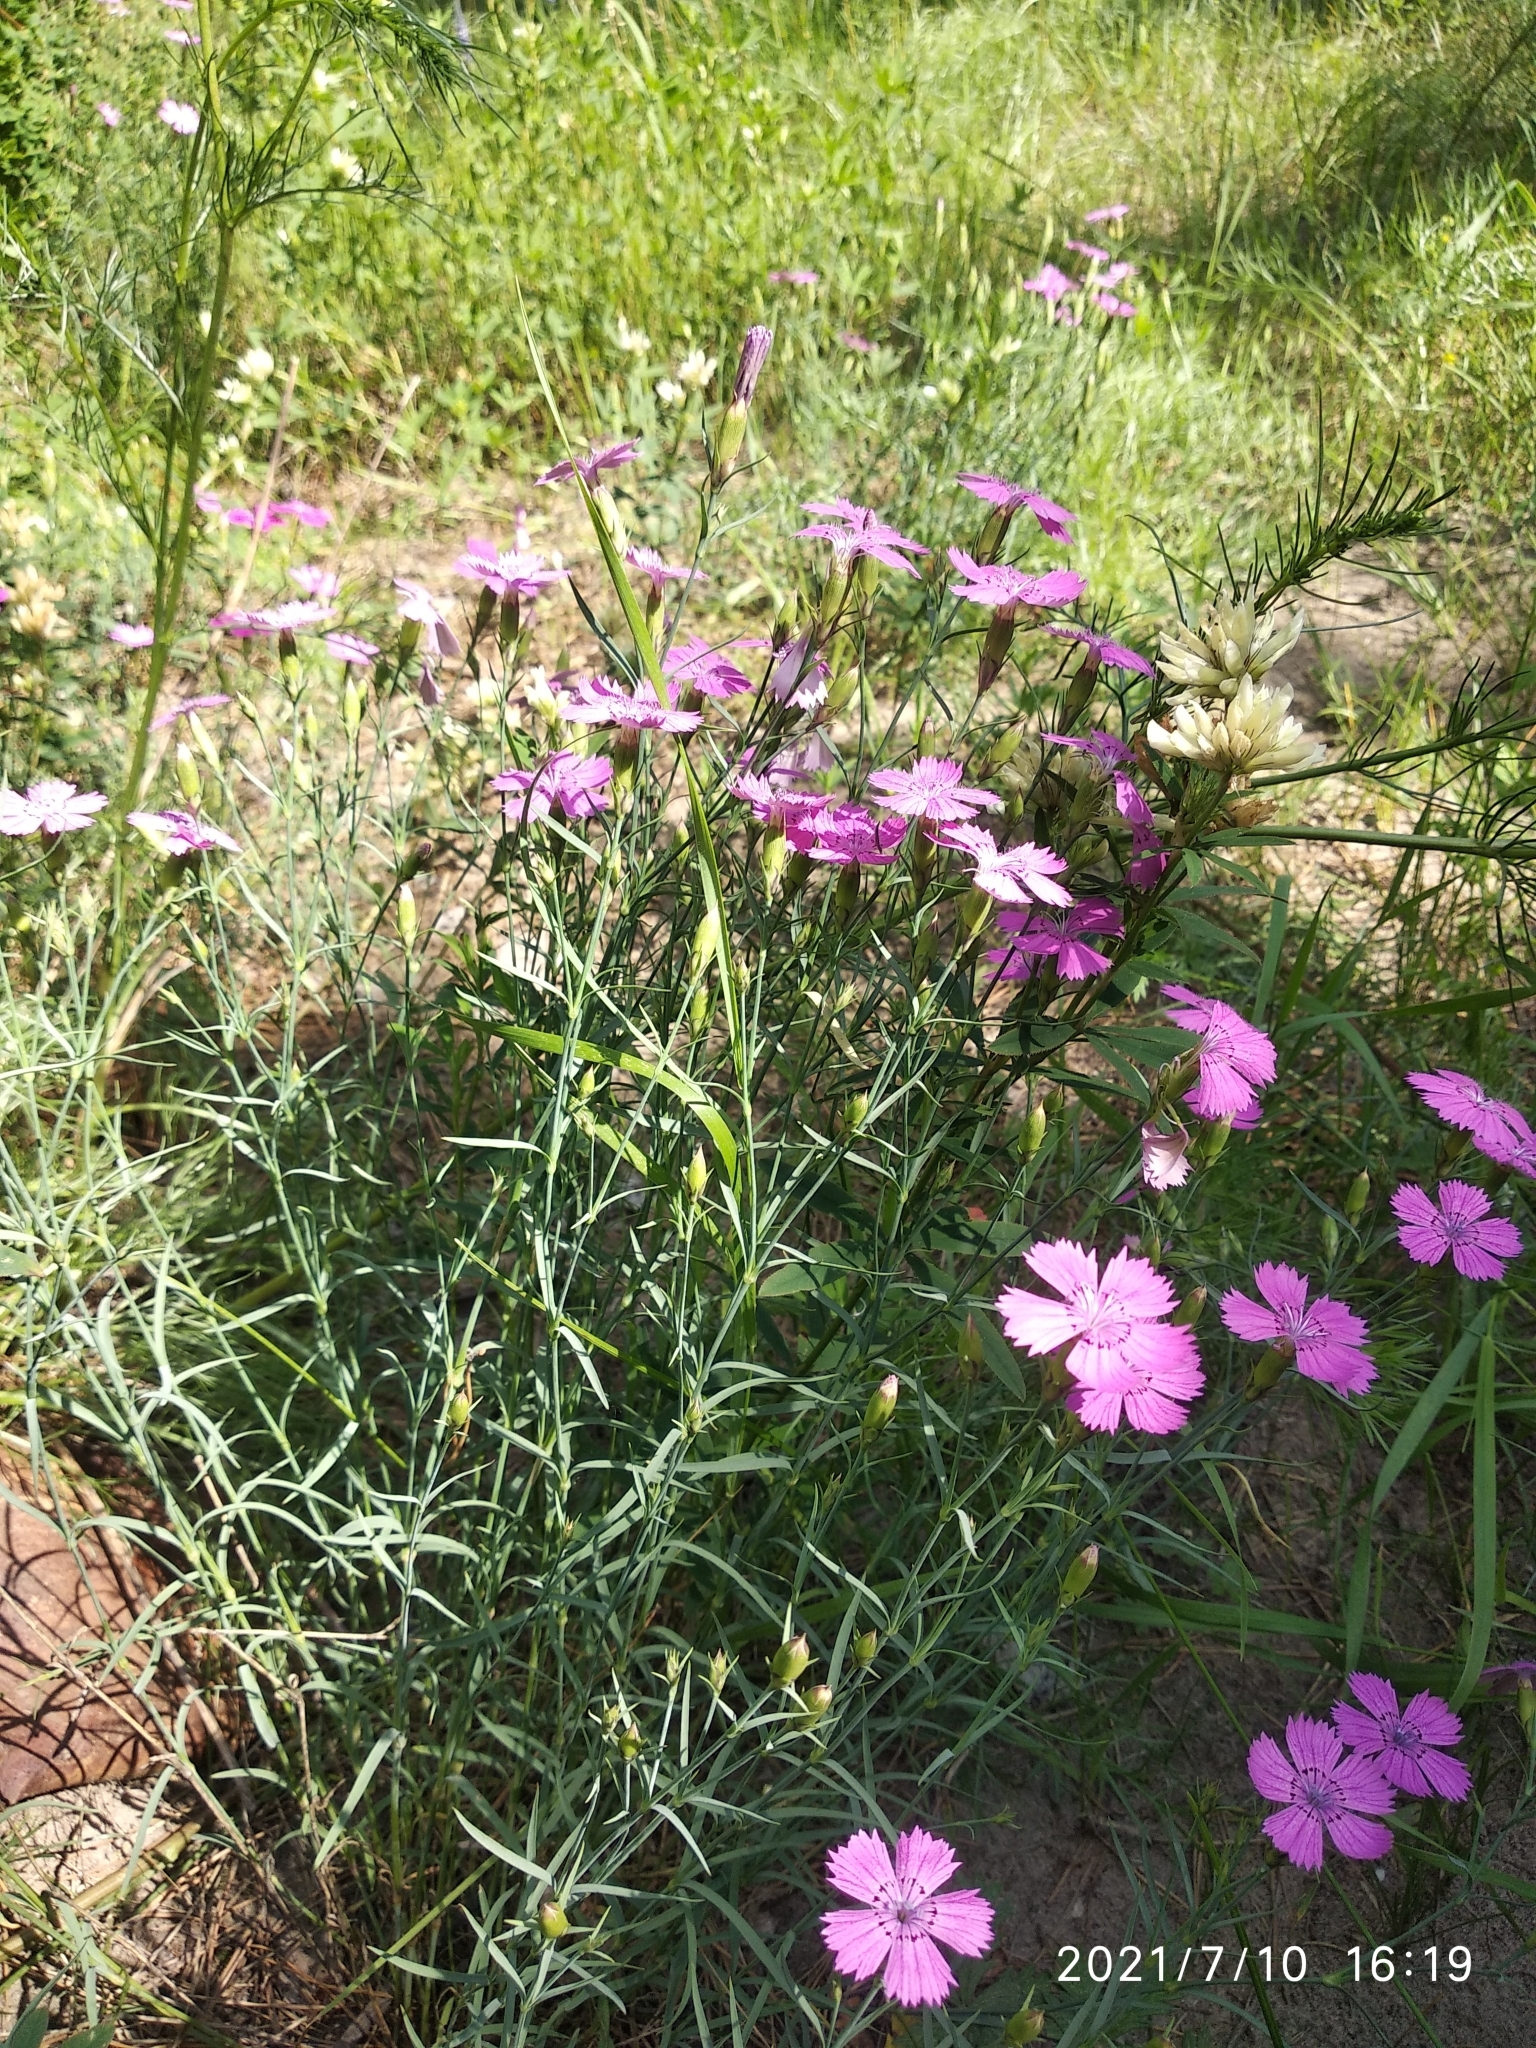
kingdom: Plantae
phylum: Tracheophyta
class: Magnoliopsida
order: Caryophyllales
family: Caryophyllaceae
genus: Dianthus
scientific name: Dianthus chinensis
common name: Rainbow pink
